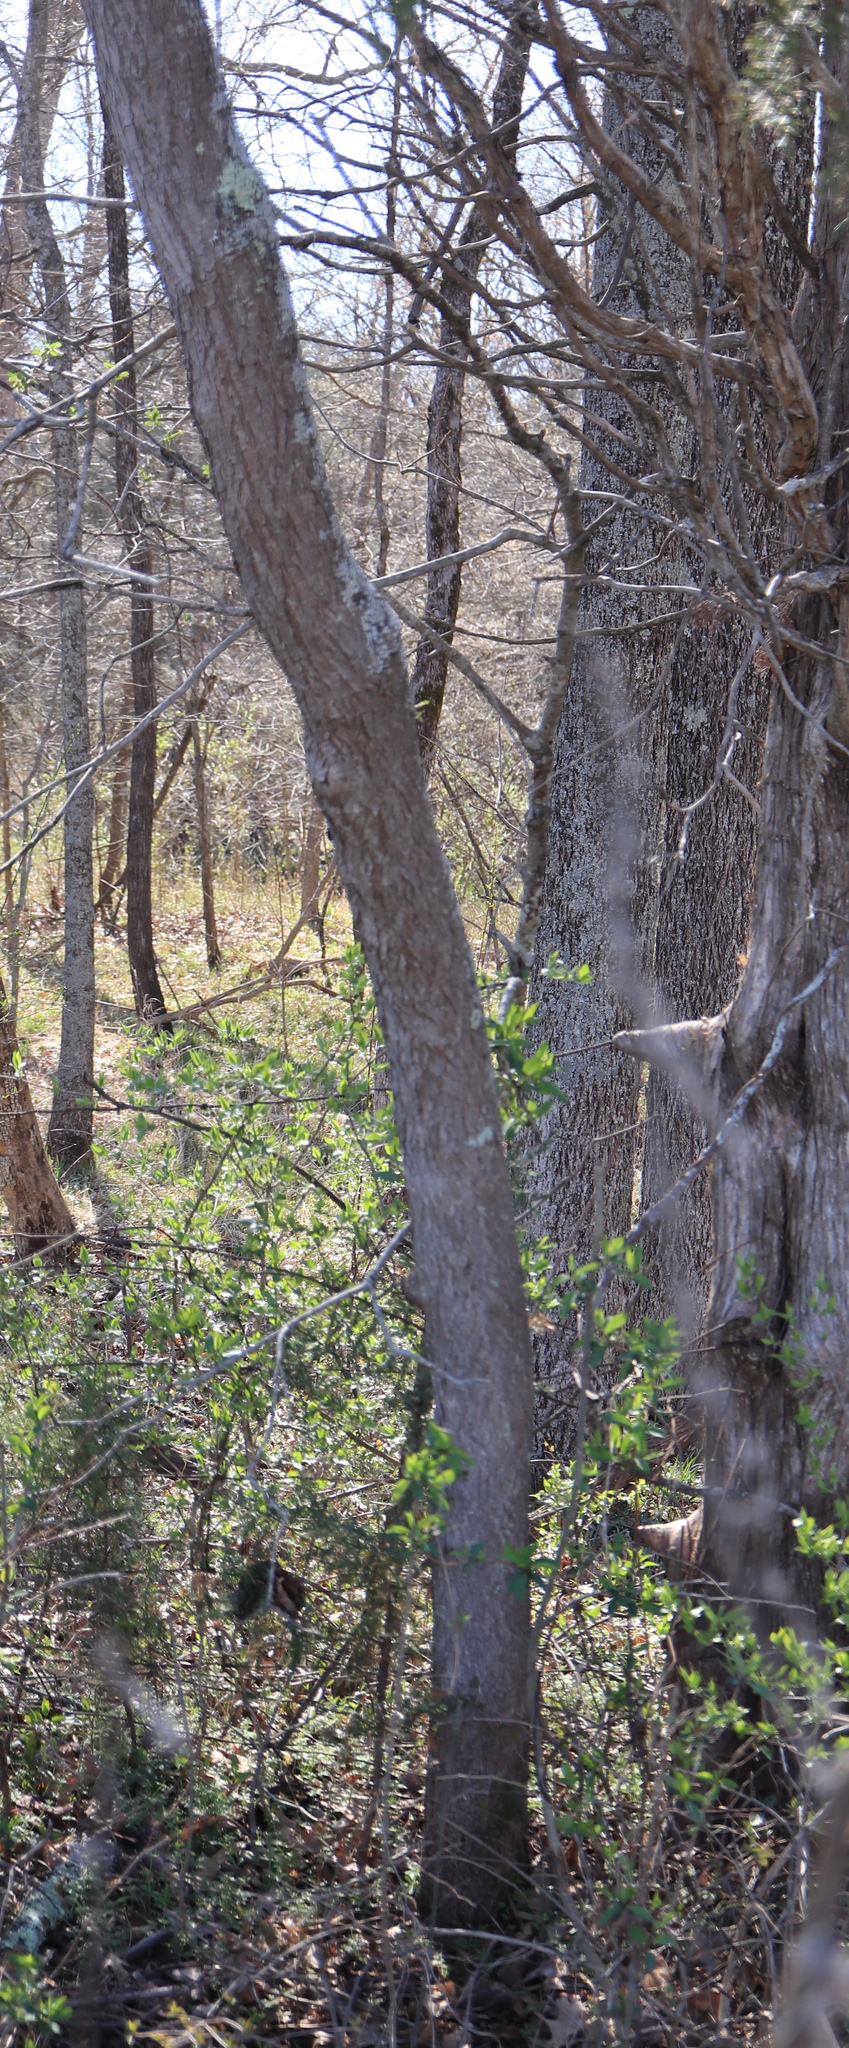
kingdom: Plantae
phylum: Tracheophyta
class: Magnoliopsida
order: Fabales
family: Fabaceae
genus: Cercis
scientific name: Cercis canadensis
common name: Eastern redbud
